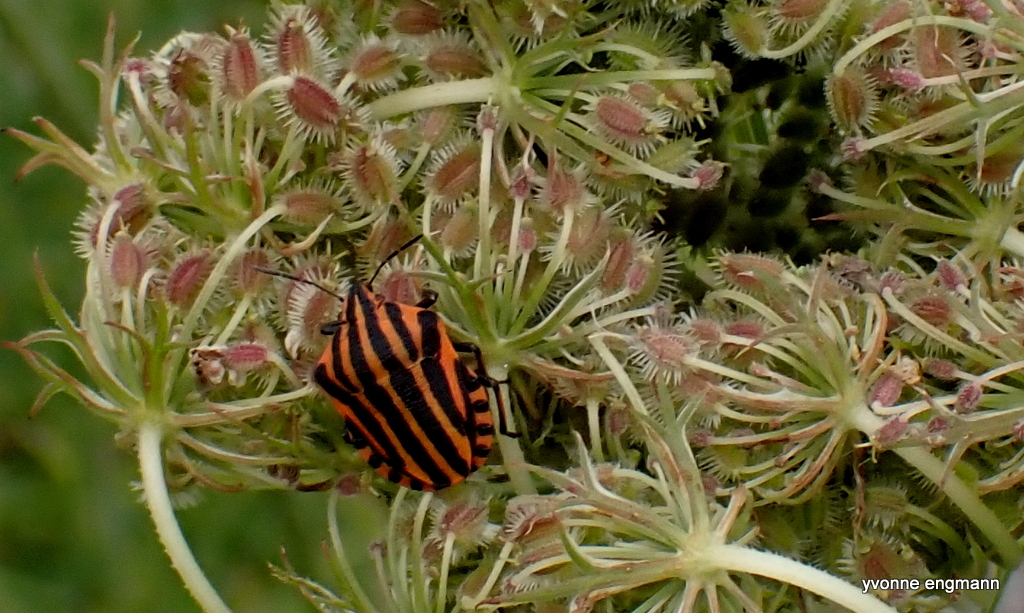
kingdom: Animalia
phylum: Arthropoda
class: Insecta
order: Hemiptera
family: Pentatomidae
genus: Graphosoma
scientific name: Graphosoma italicum
